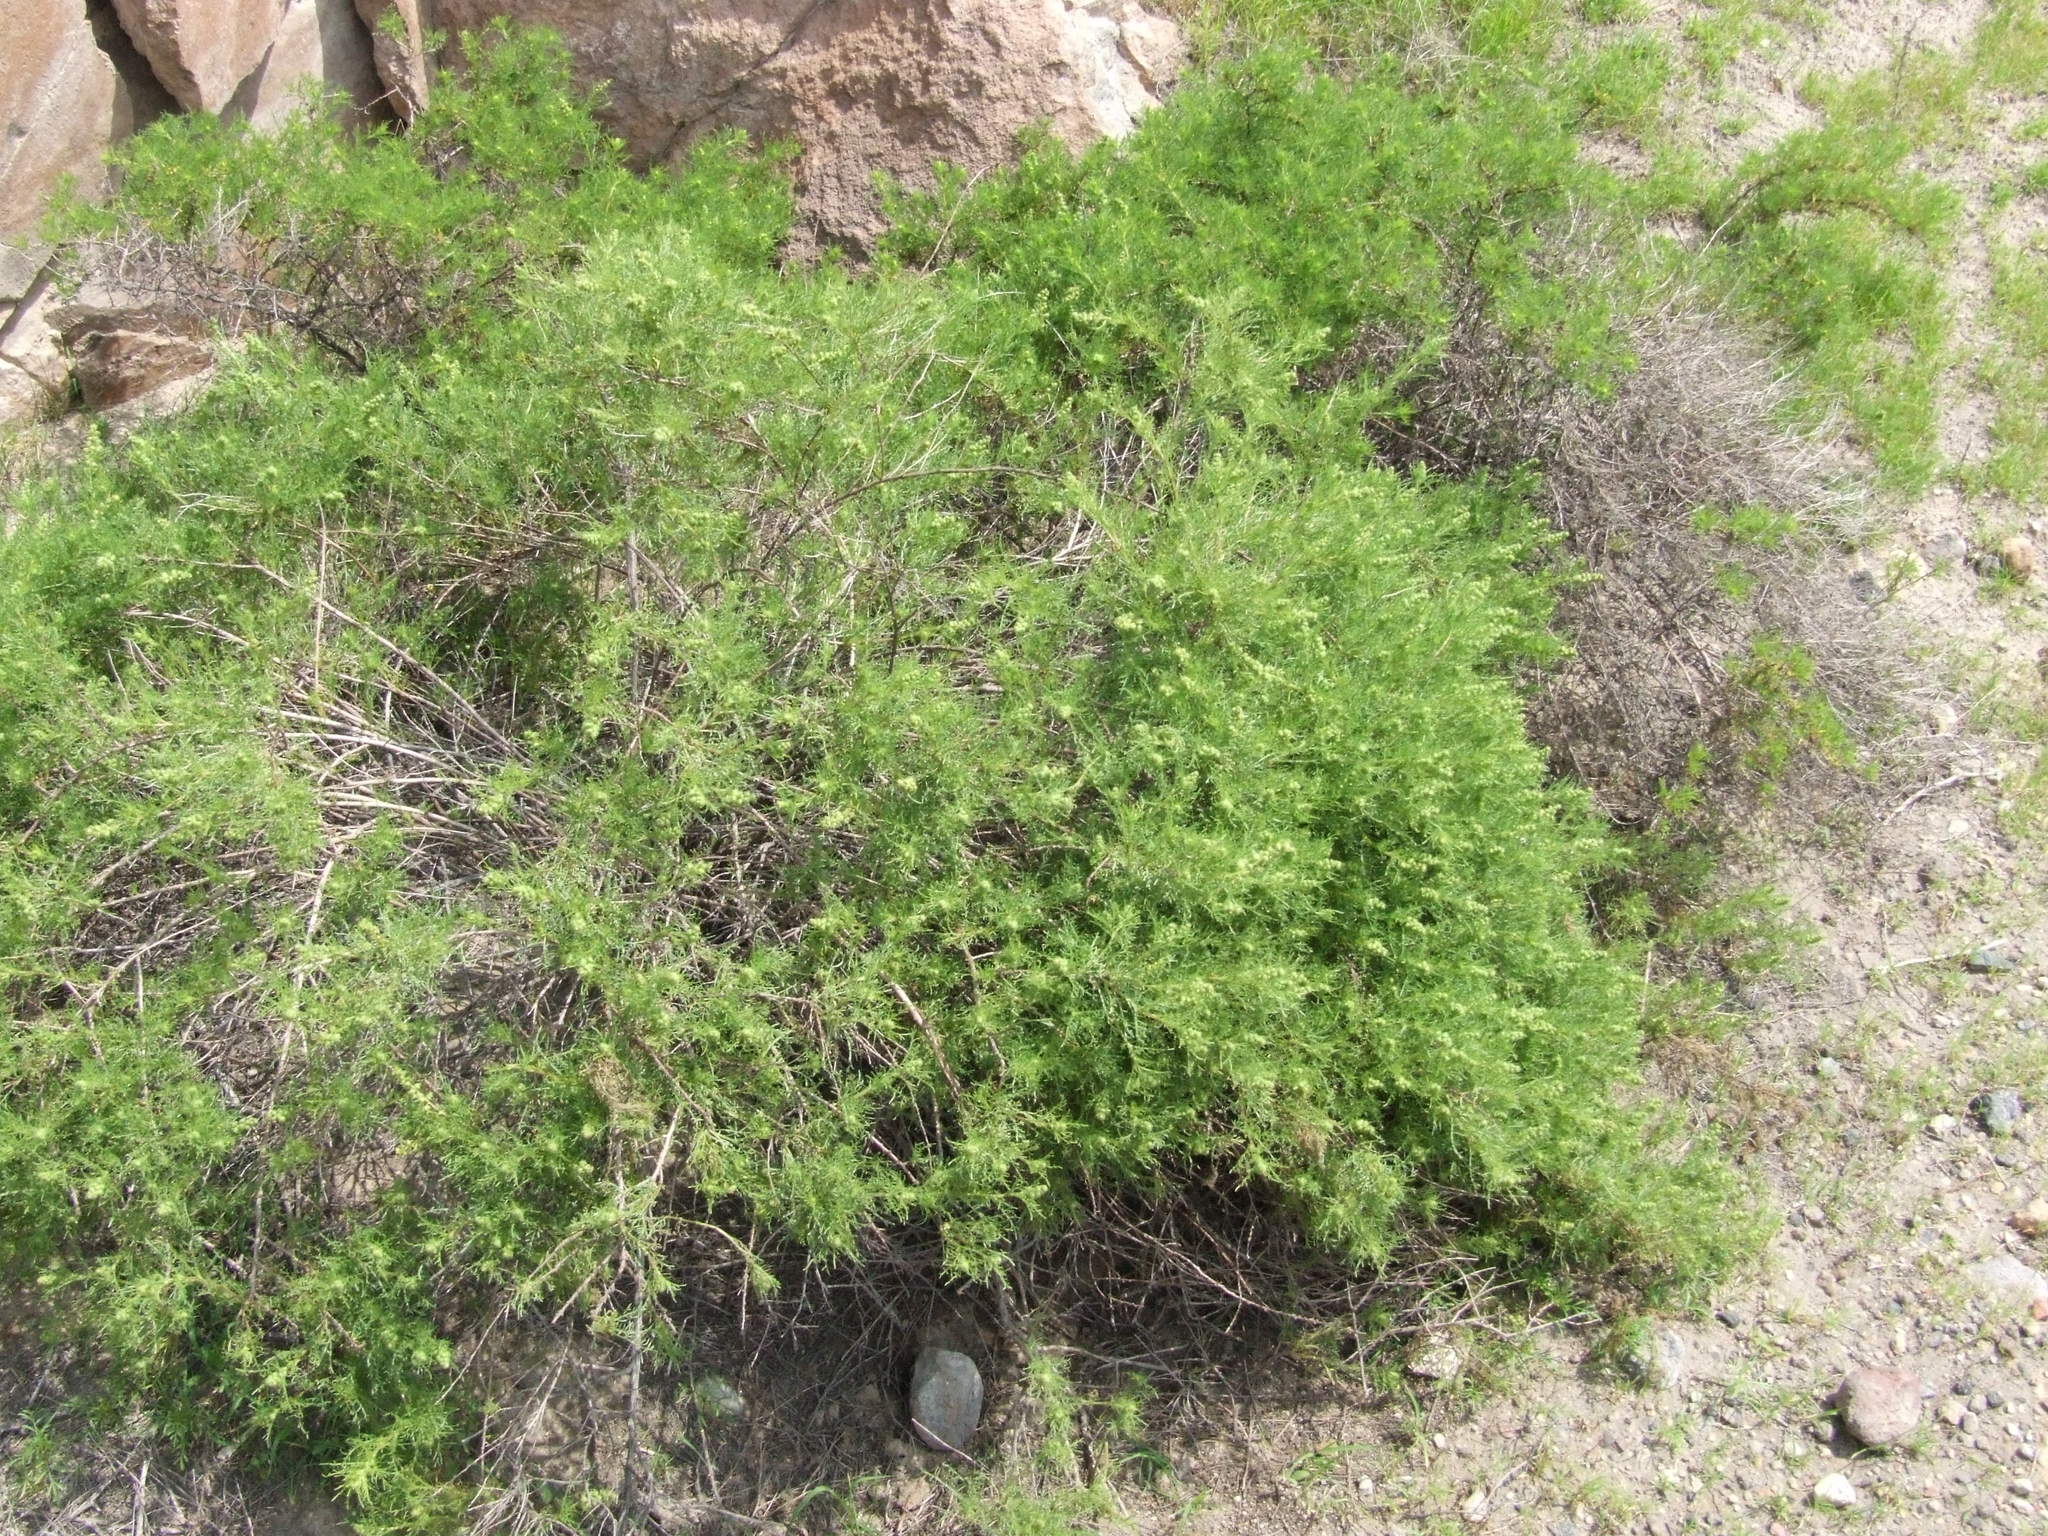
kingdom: Plantae
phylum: Tracheophyta
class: Magnoliopsida
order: Asterales
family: Asteraceae
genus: Ambrosia
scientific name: Ambrosia artemisioides
